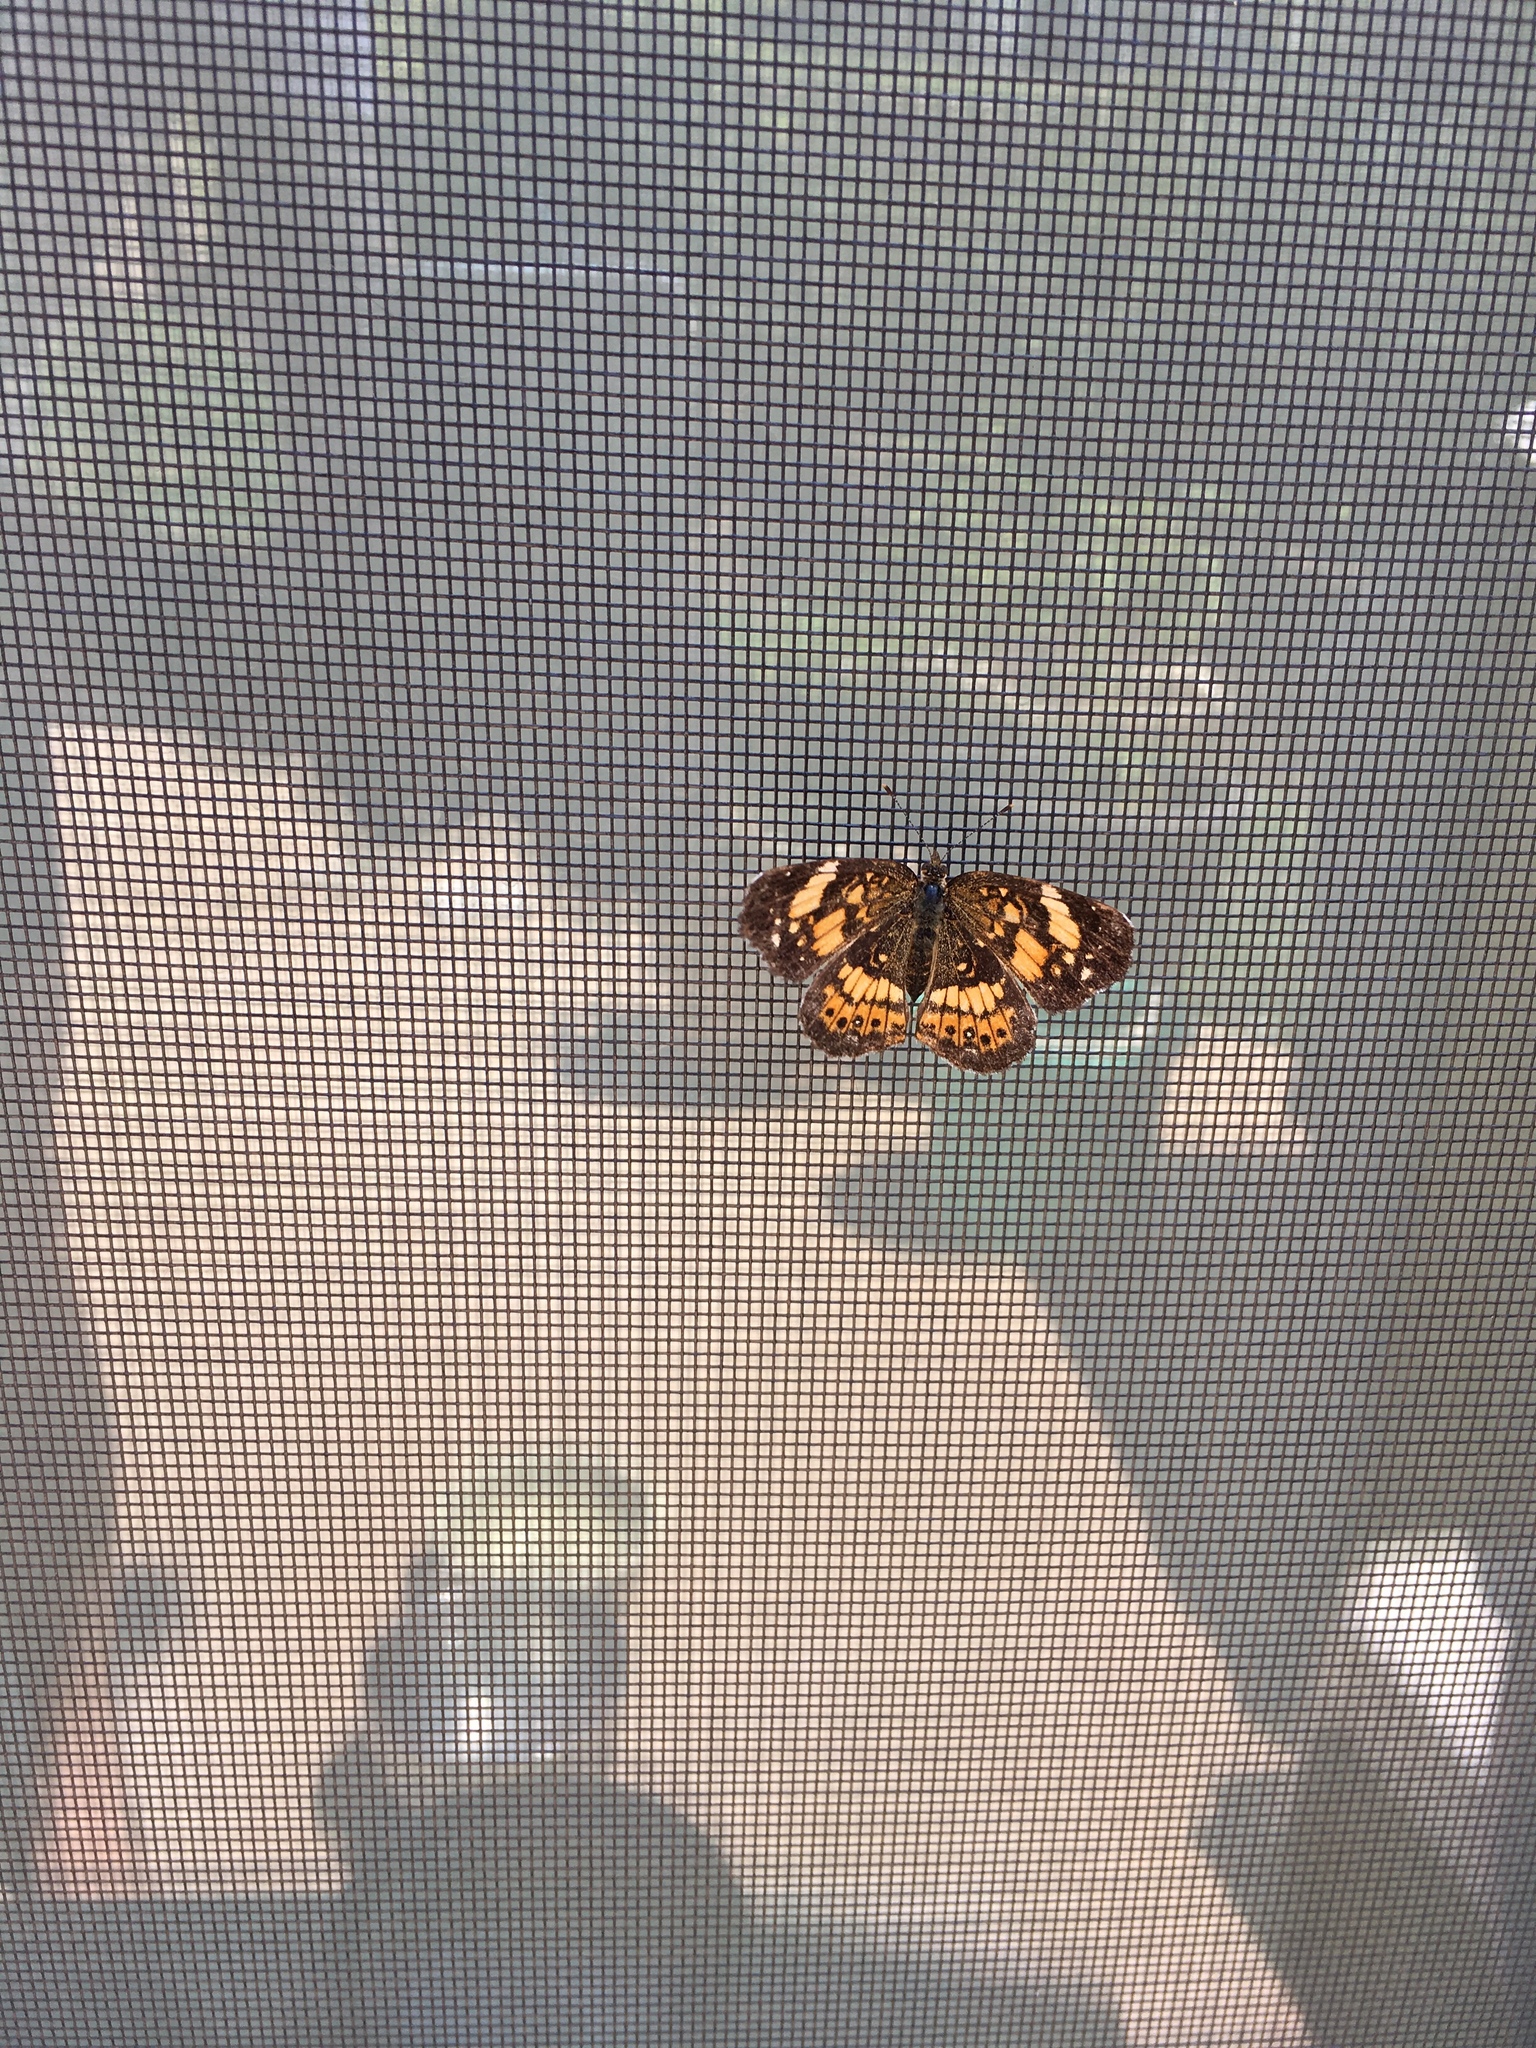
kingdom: Animalia
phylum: Arthropoda
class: Insecta
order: Lepidoptera
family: Nymphalidae
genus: Chlosyne
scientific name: Chlosyne nycteis
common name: Silvery checkerspot
